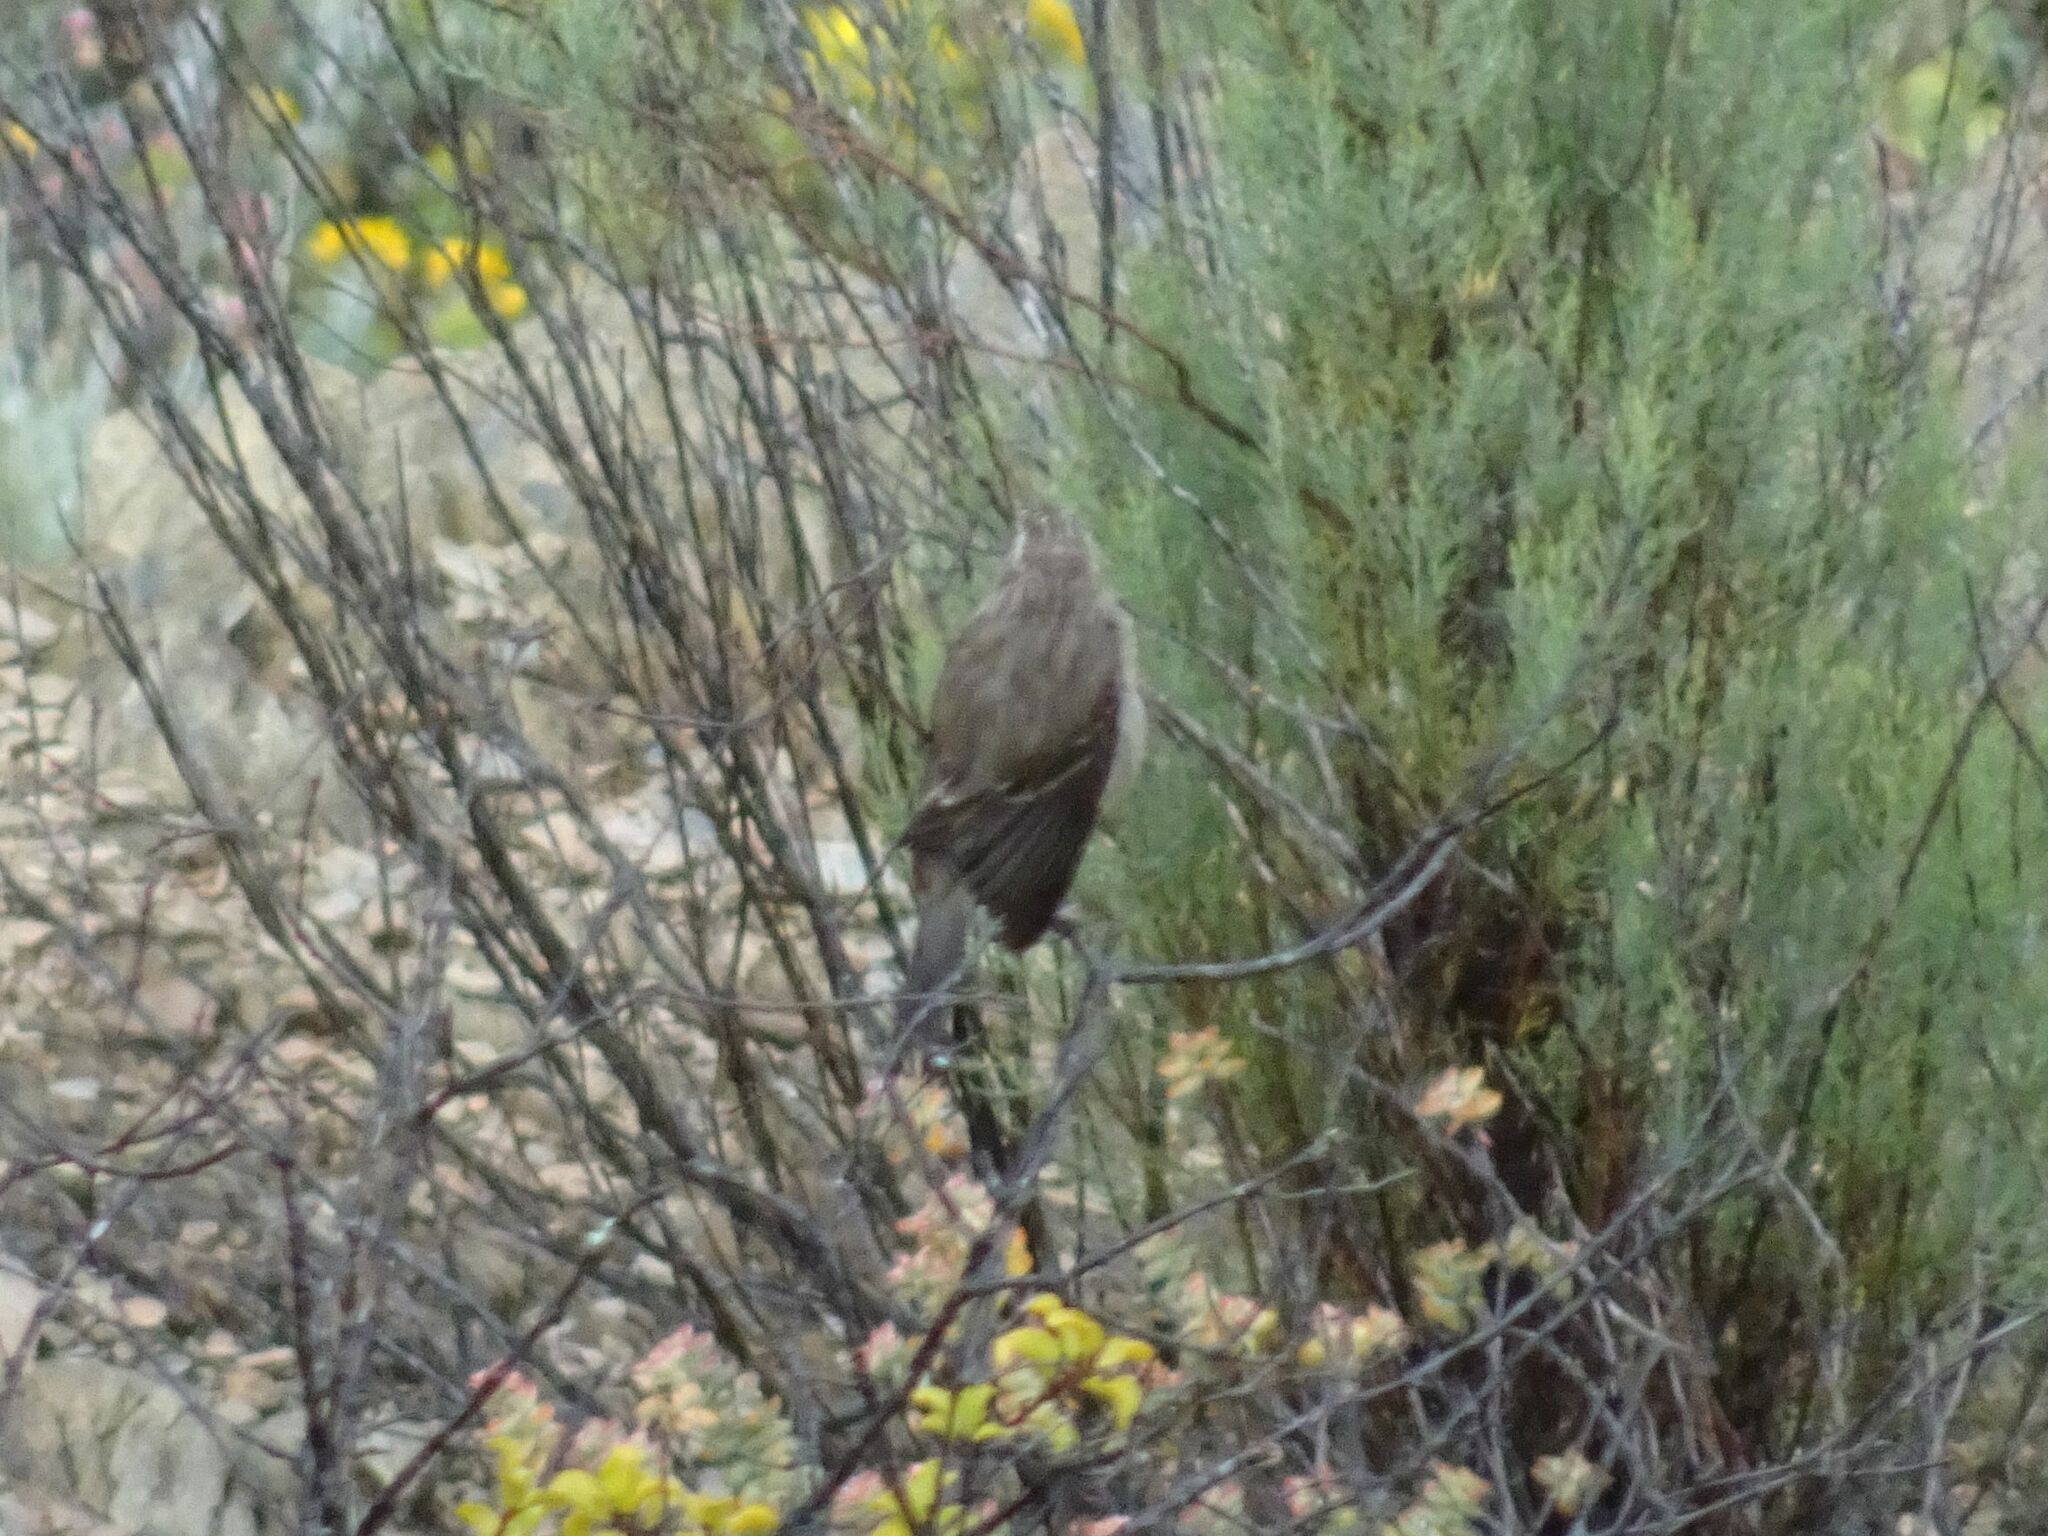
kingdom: Animalia
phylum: Chordata
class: Aves
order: Passeriformes
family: Fringillidae
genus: Crithagra
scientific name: Crithagra gularis
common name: Streaky-headed seedeater
